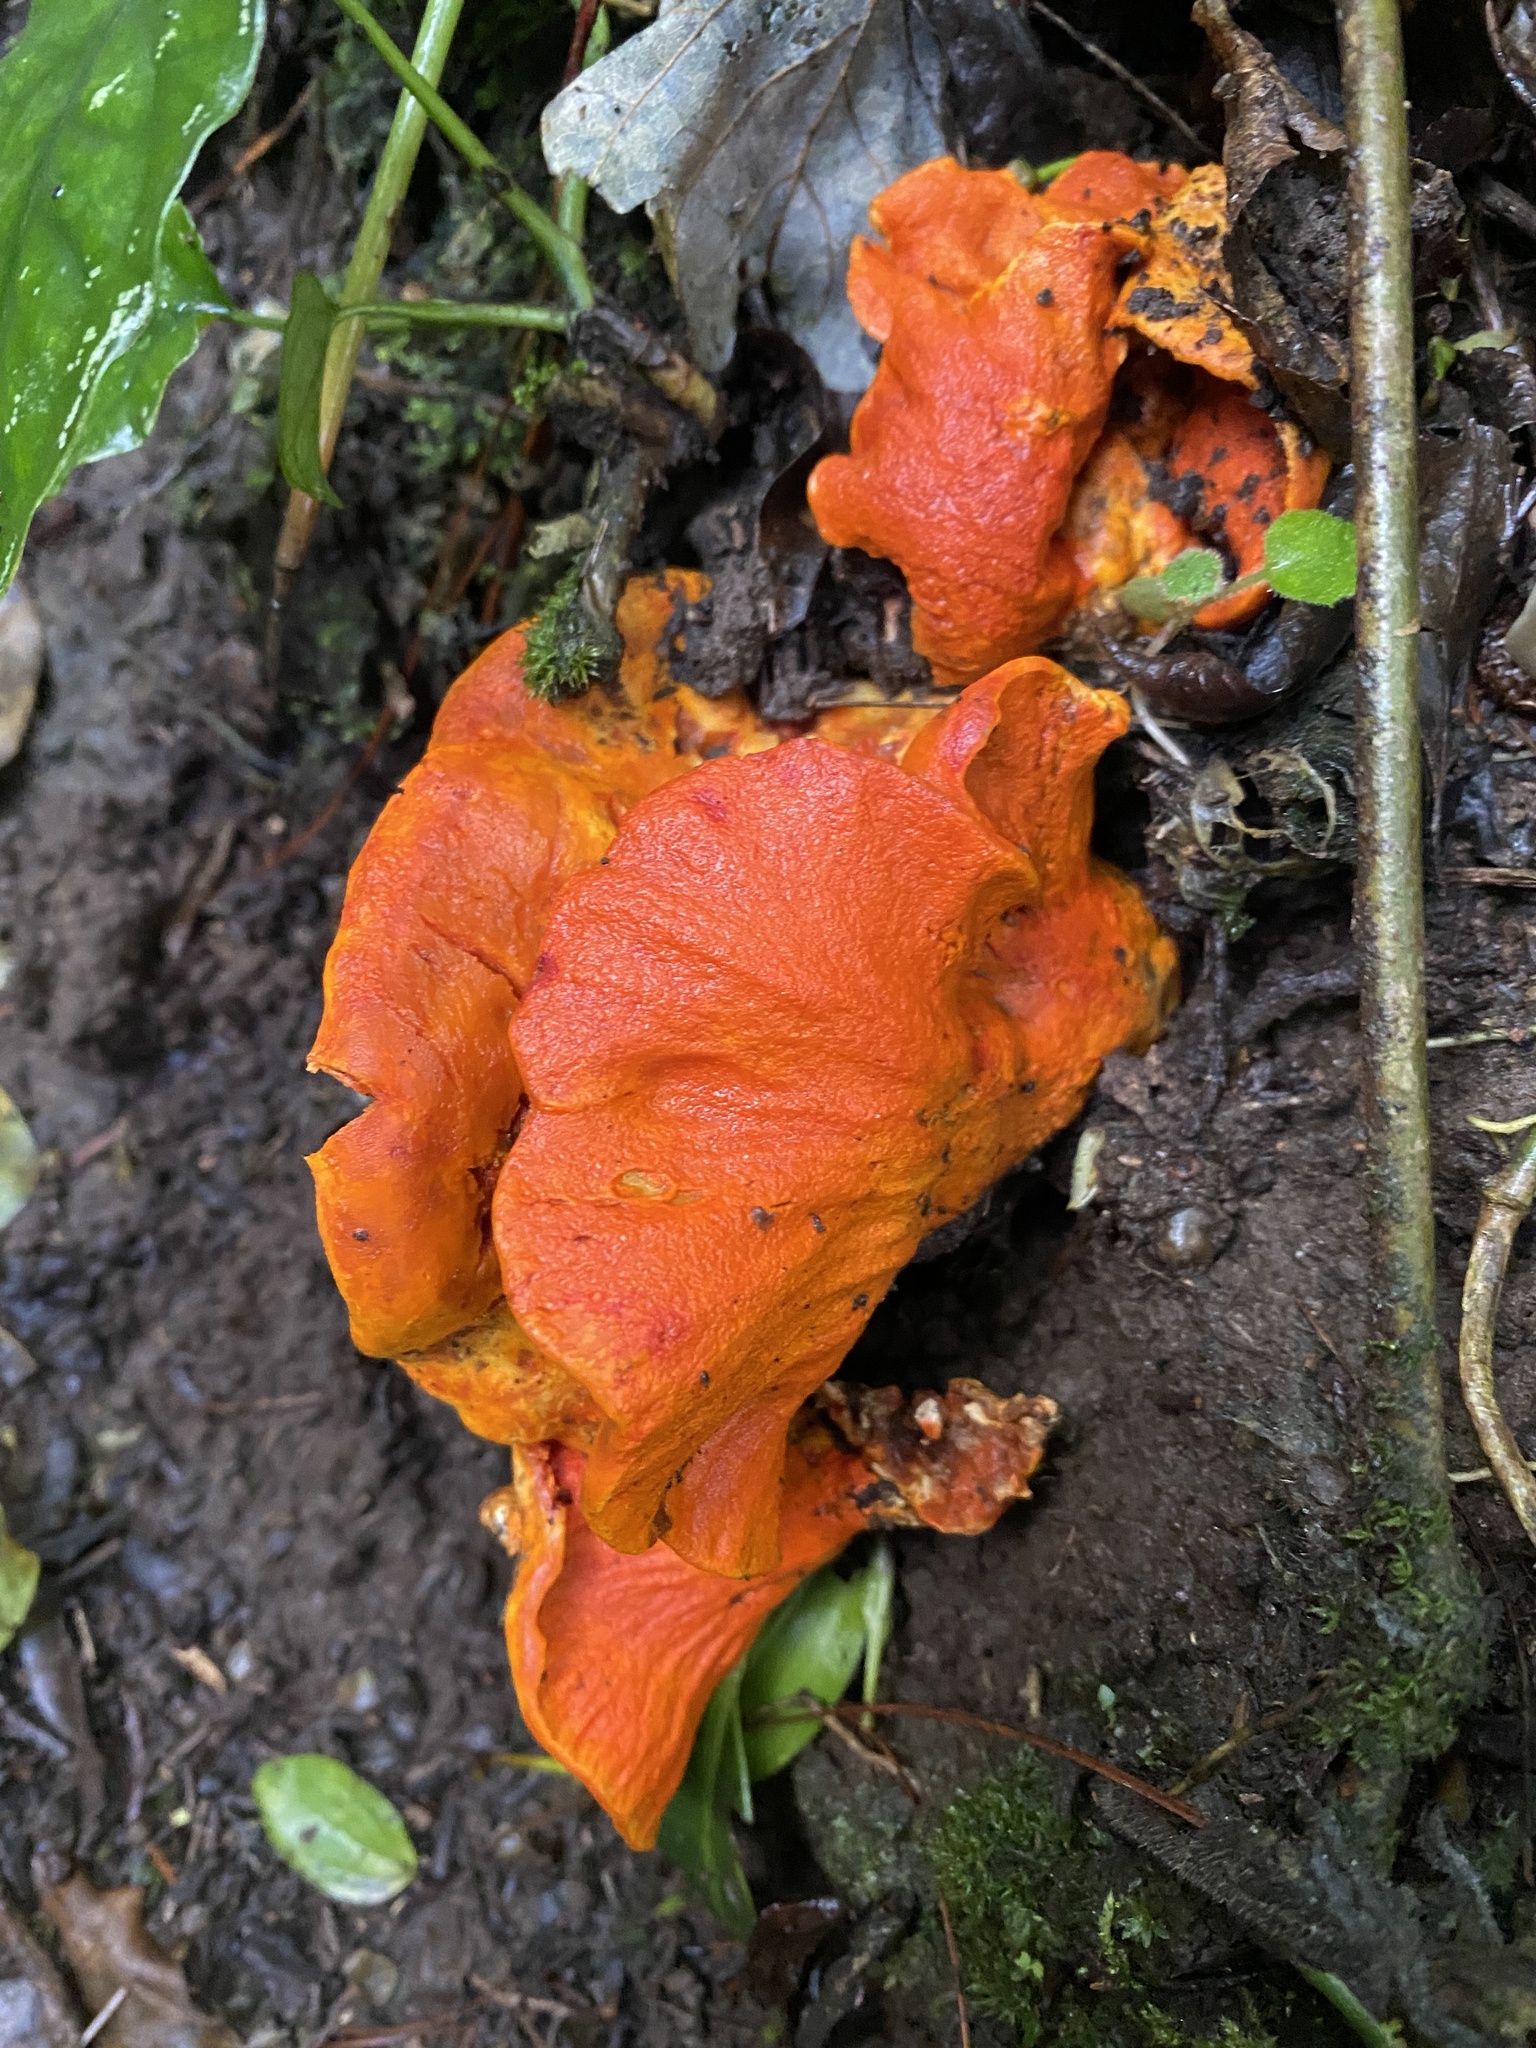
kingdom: Fungi
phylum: Ascomycota
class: Sordariomycetes
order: Hypocreales
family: Hypocreaceae
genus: Hypomyces
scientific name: Hypomyces lactifluorum
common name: Lobster mushroom
